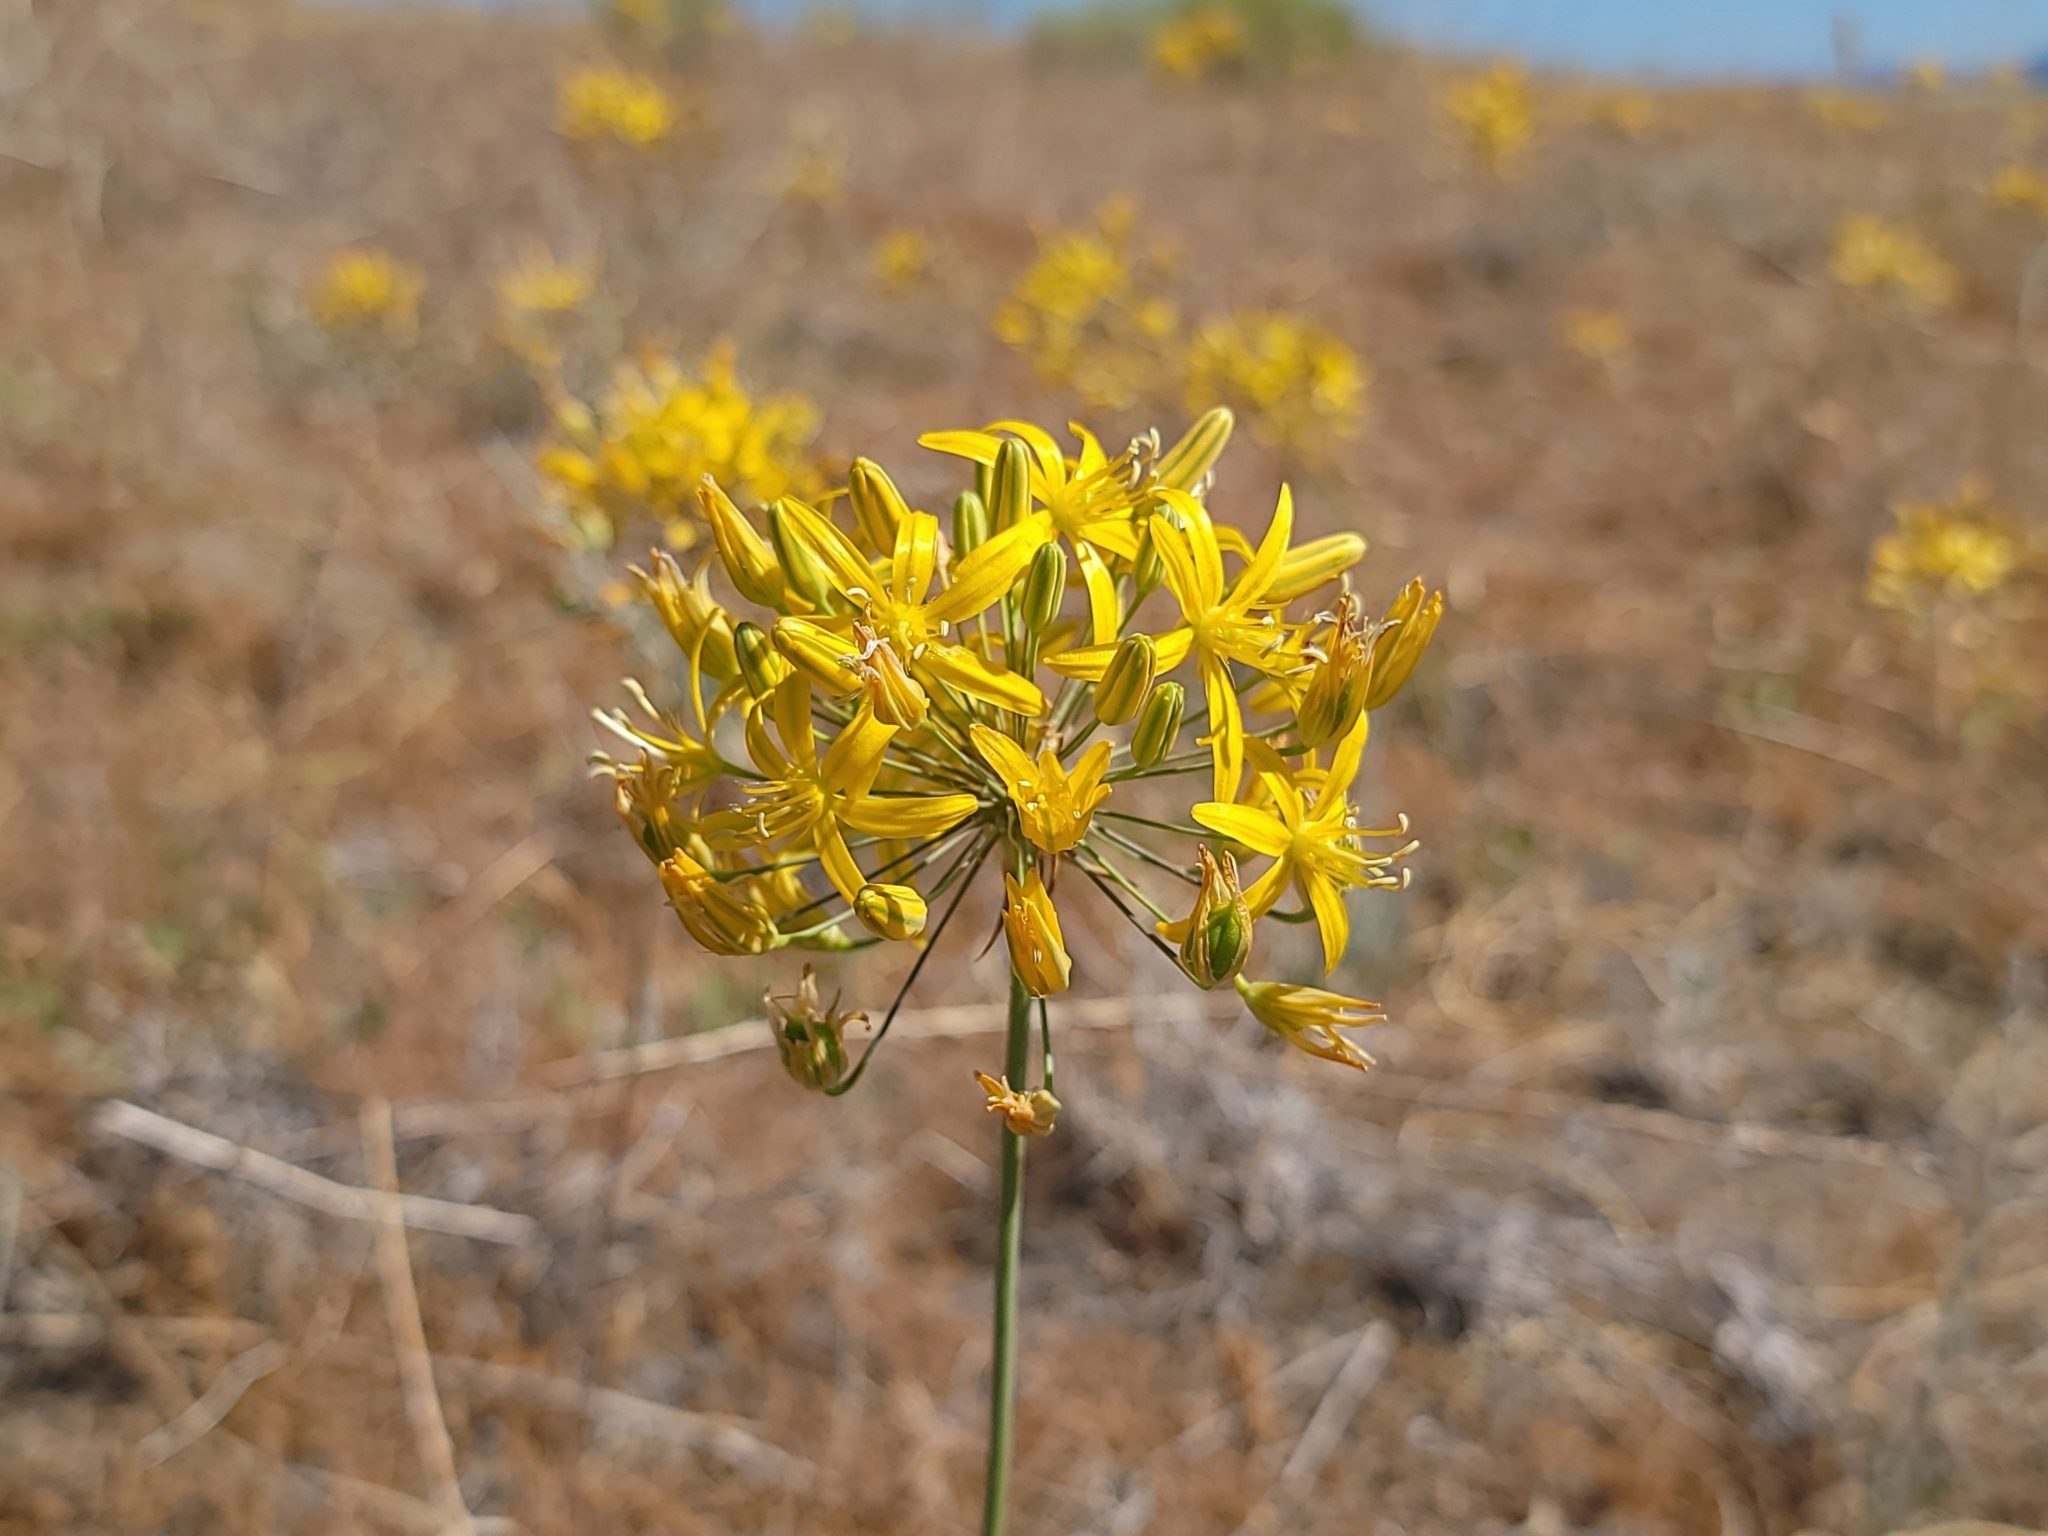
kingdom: Plantae
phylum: Tracheophyta
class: Liliopsida
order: Asparagales
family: Asparagaceae
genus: Bloomeria
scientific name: Bloomeria crocea
